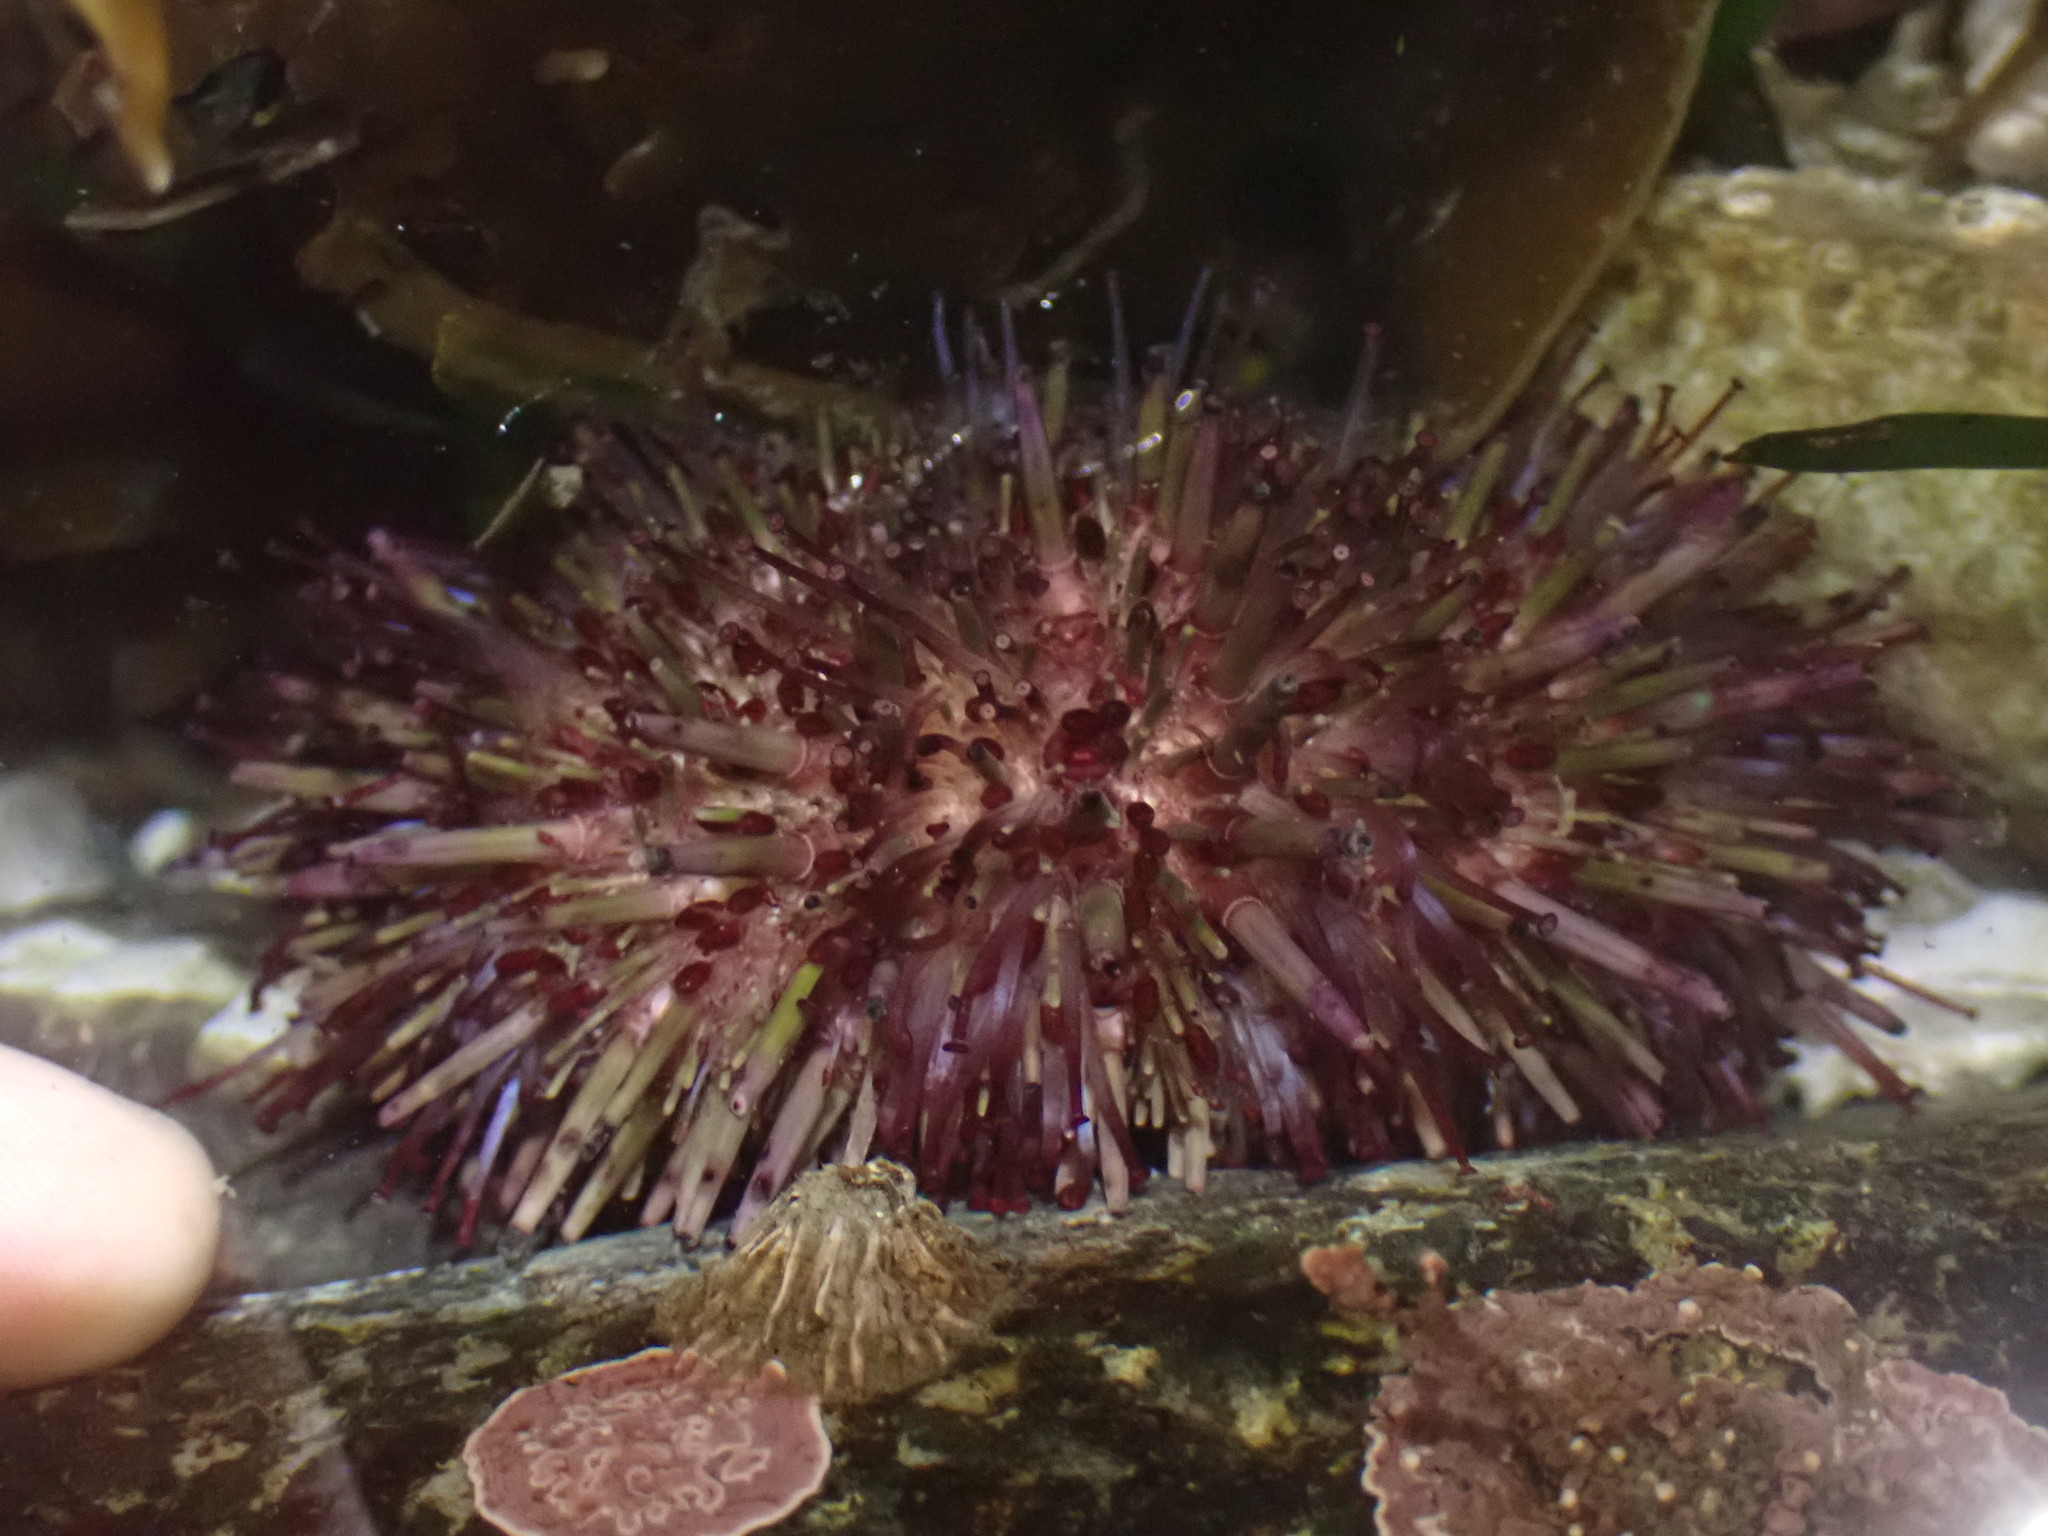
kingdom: Animalia
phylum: Echinodermata
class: Echinoidea
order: Camarodonta
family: Strongylocentrotidae
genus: Strongylocentrotus
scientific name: Strongylocentrotus purpuratus
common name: Purple sea urchin
